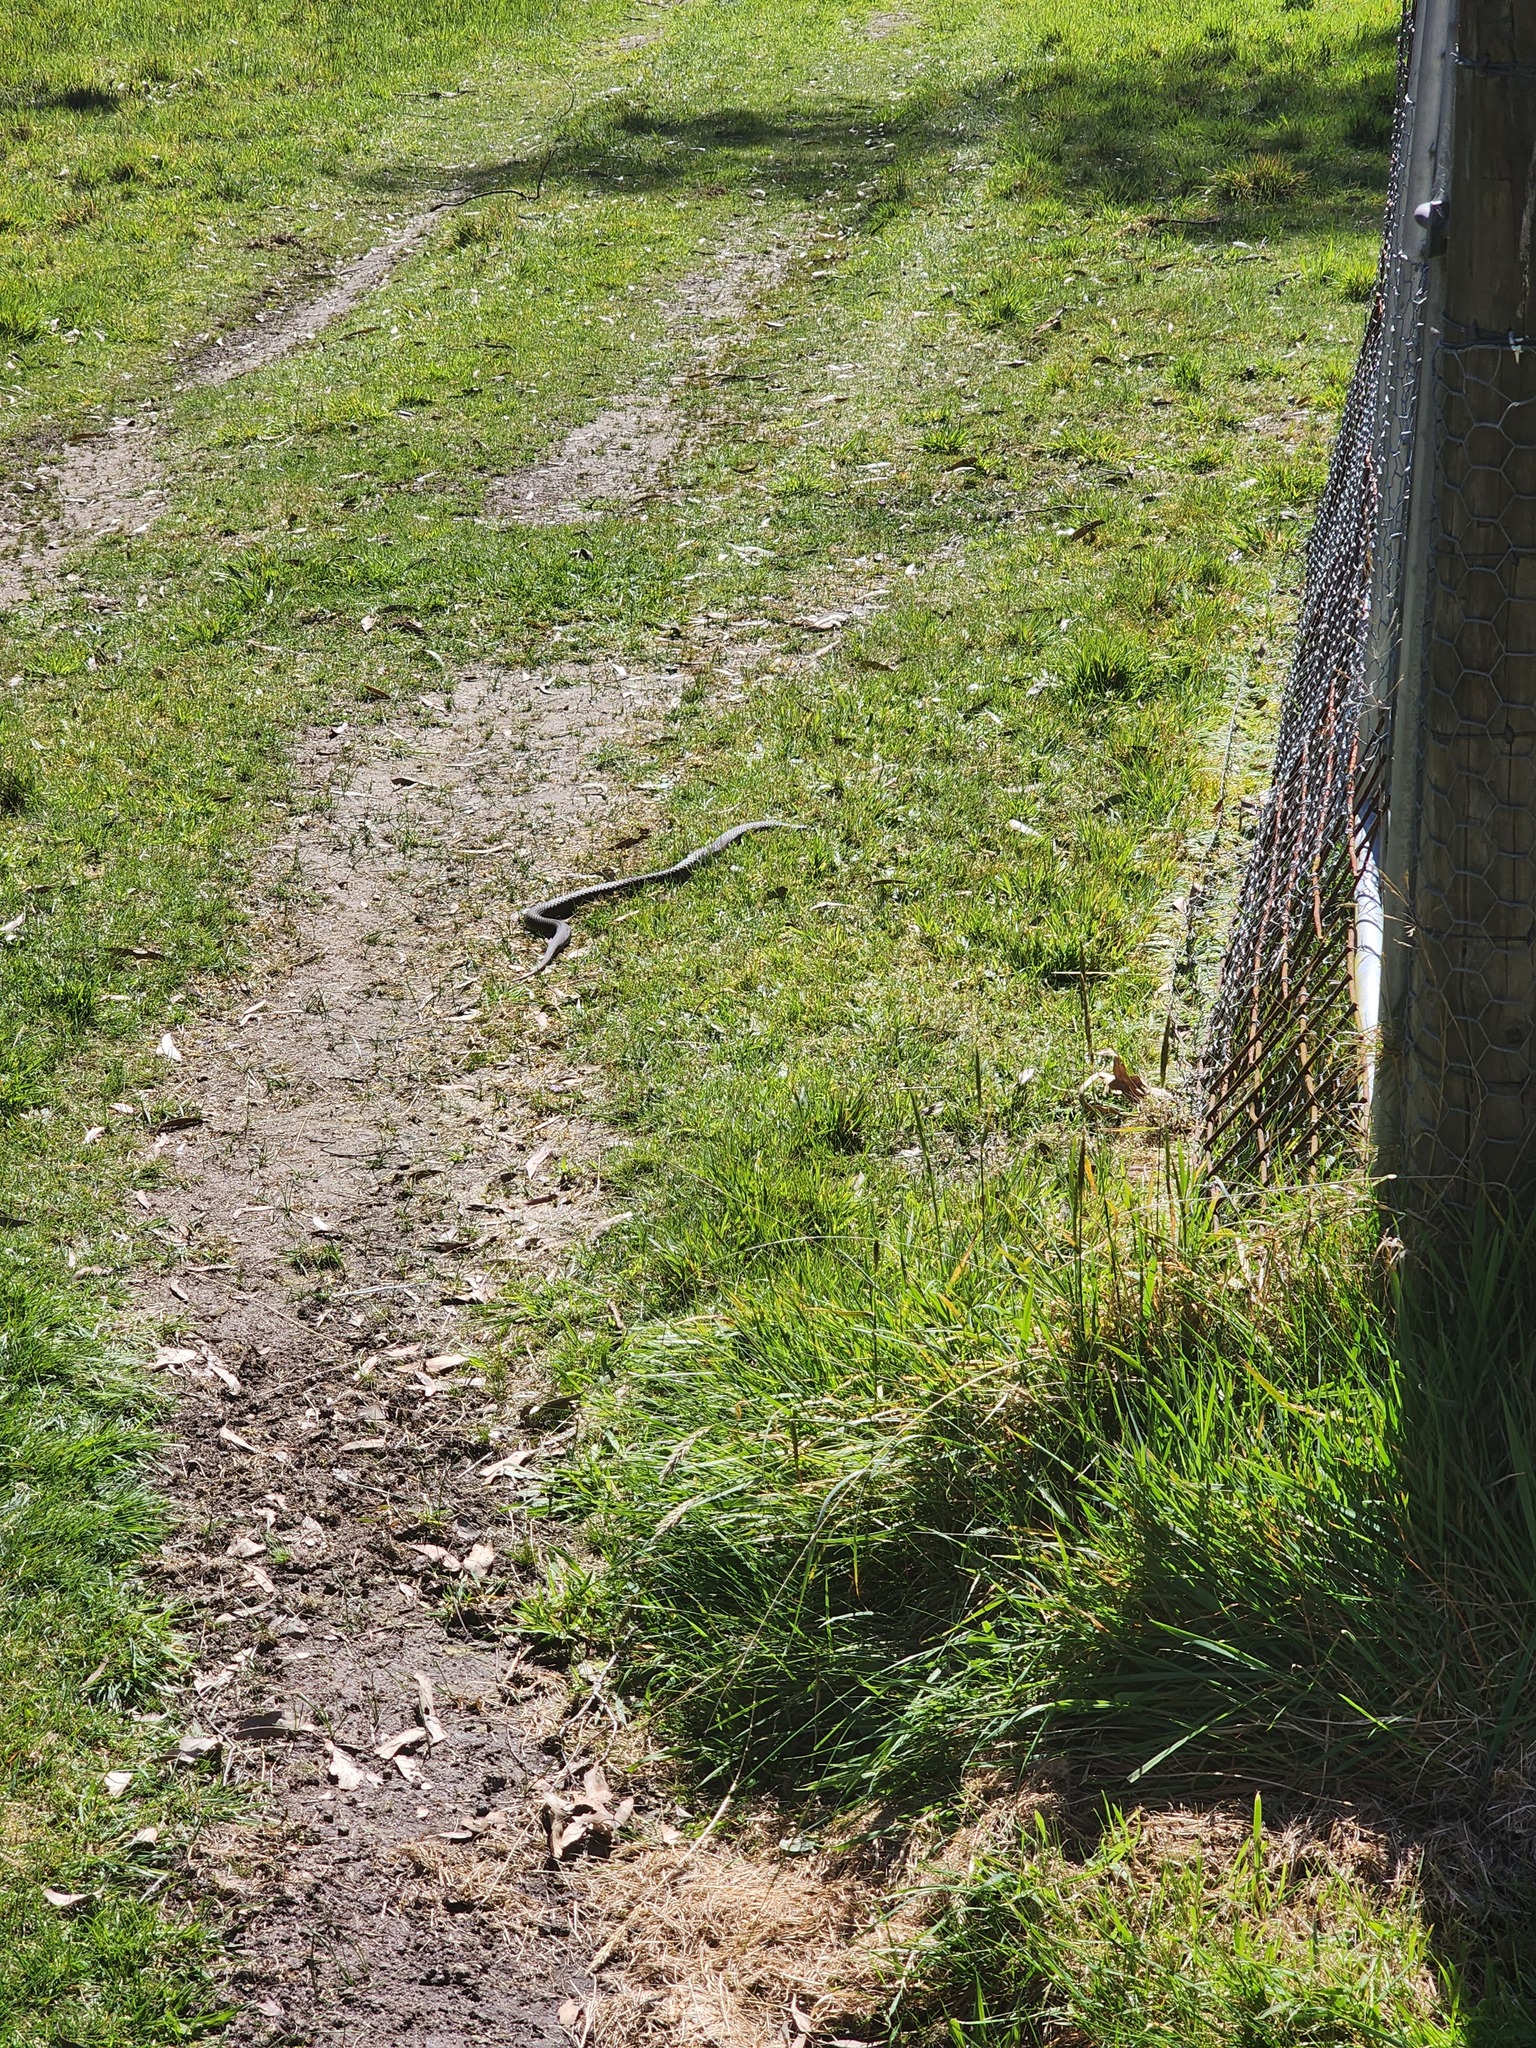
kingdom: Animalia
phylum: Chordata
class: Squamata
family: Elapidae
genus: Austrelaps
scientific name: Austrelaps superbus
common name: Copperhead snake
